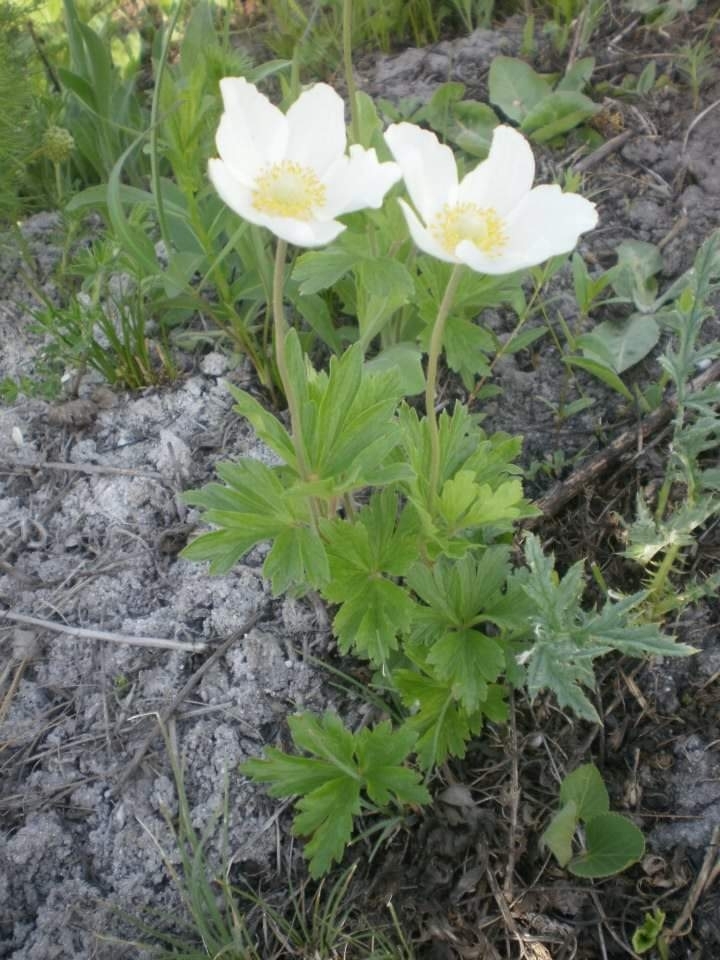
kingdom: Plantae
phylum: Tracheophyta
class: Magnoliopsida
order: Ranunculales
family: Ranunculaceae
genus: Anemone
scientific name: Anemone sylvestris
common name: Snowdrop anemone
